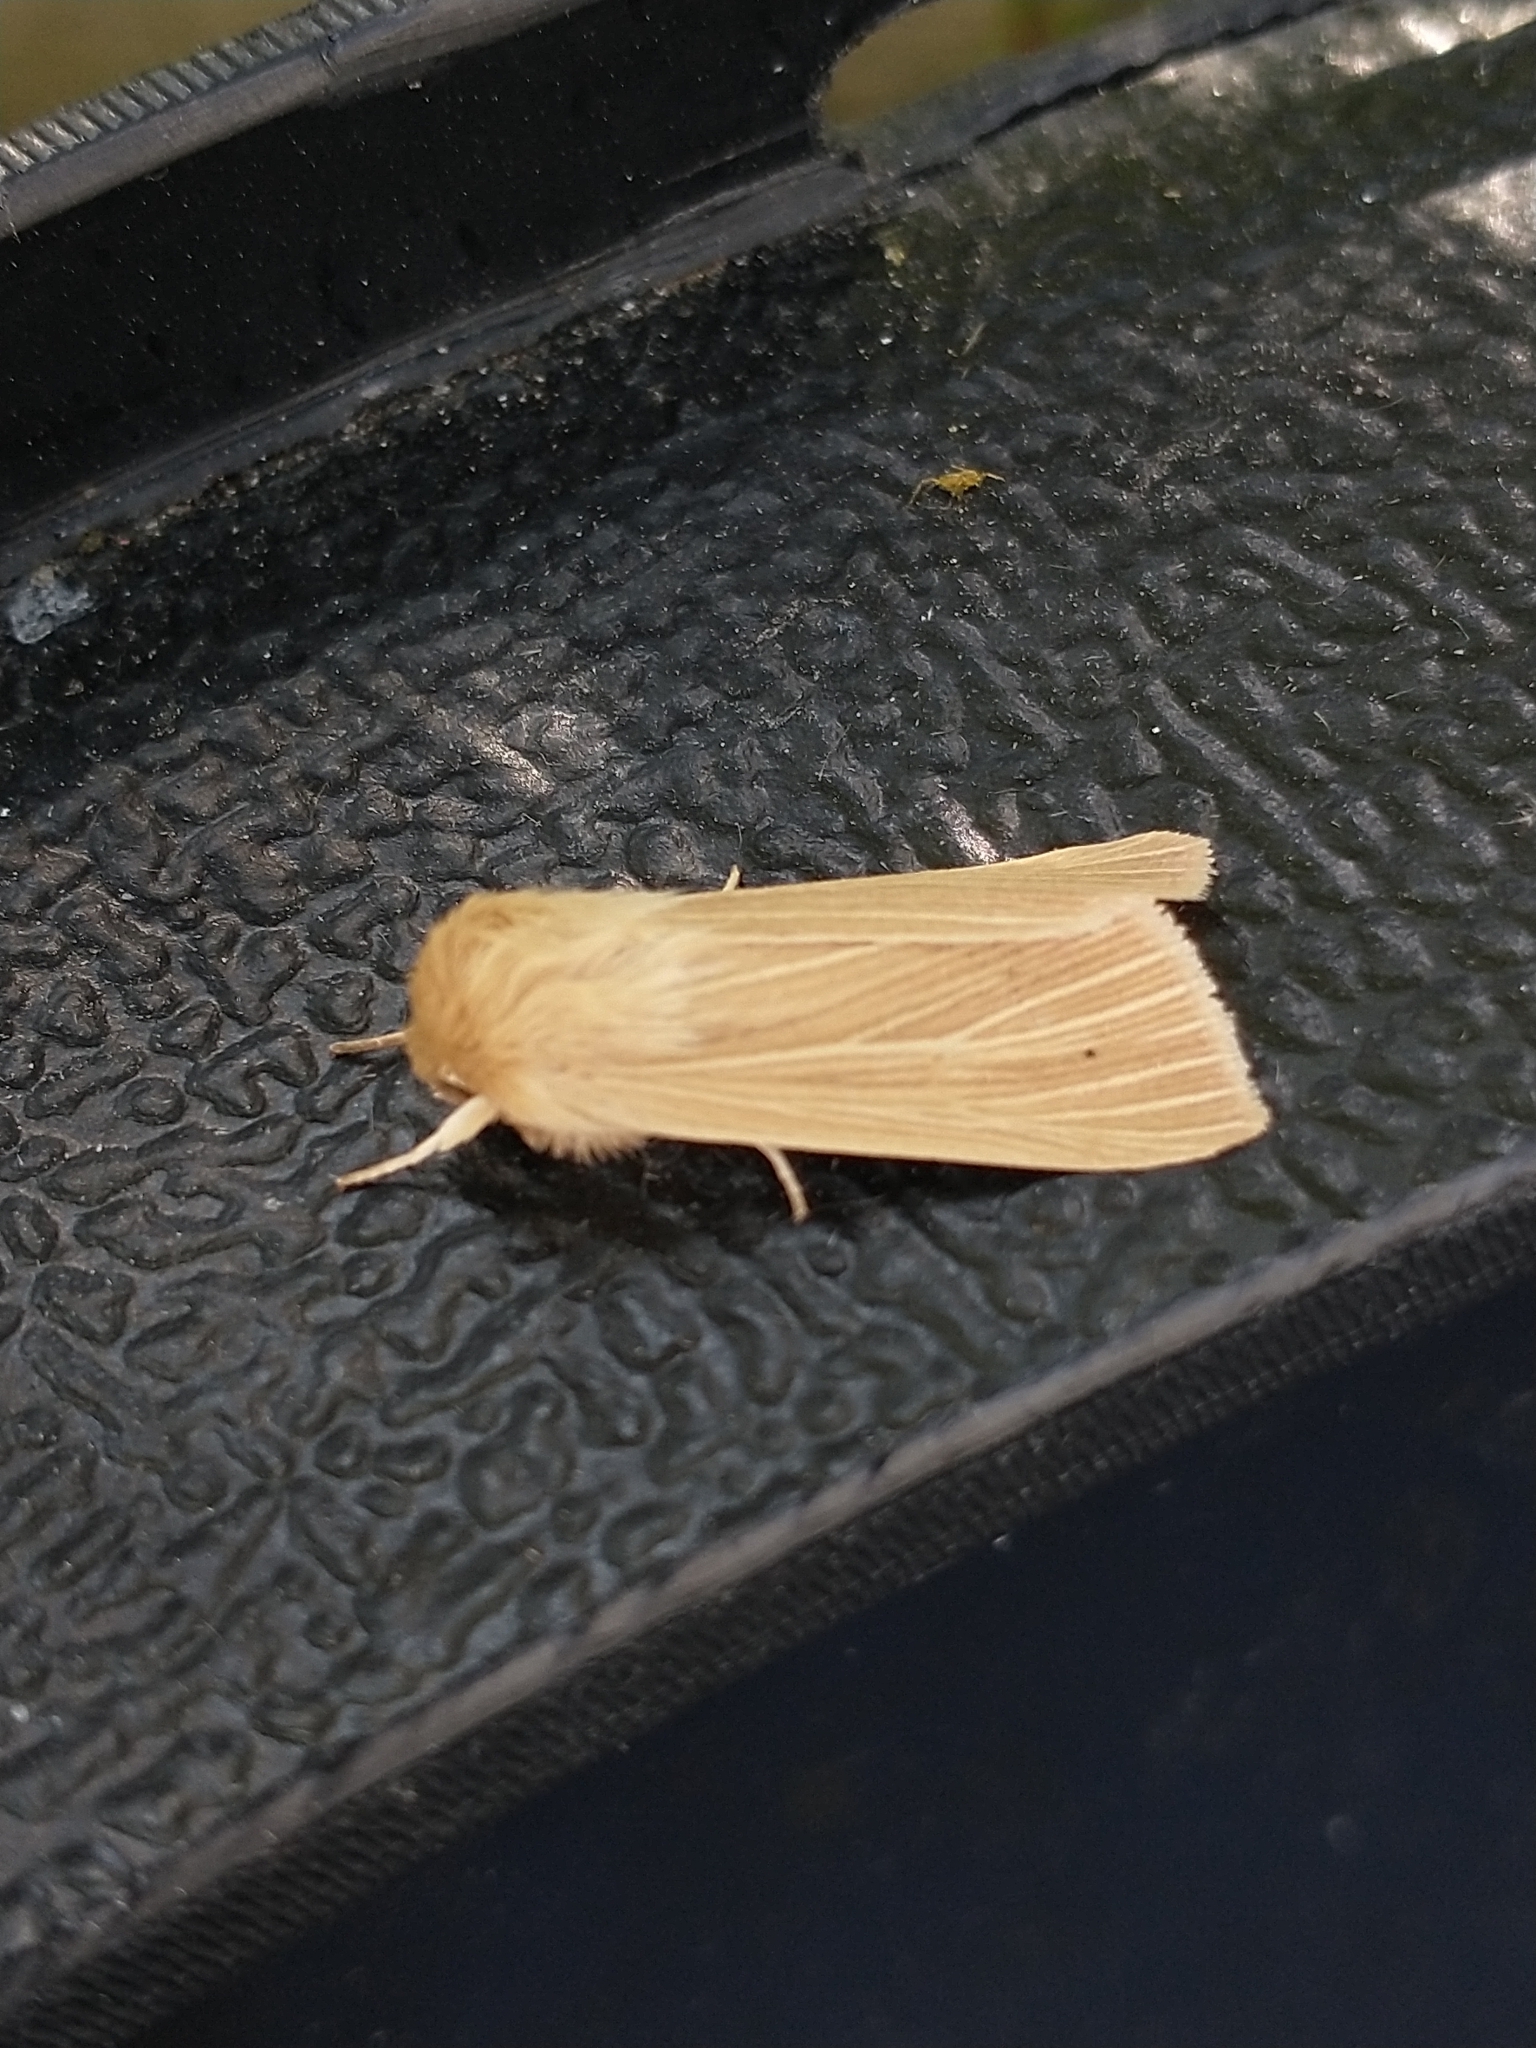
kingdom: Animalia
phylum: Arthropoda
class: Insecta
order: Lepidoptera
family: Noctuidae
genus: Mythimna
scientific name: Mythimna pallens
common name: Common wainscot
